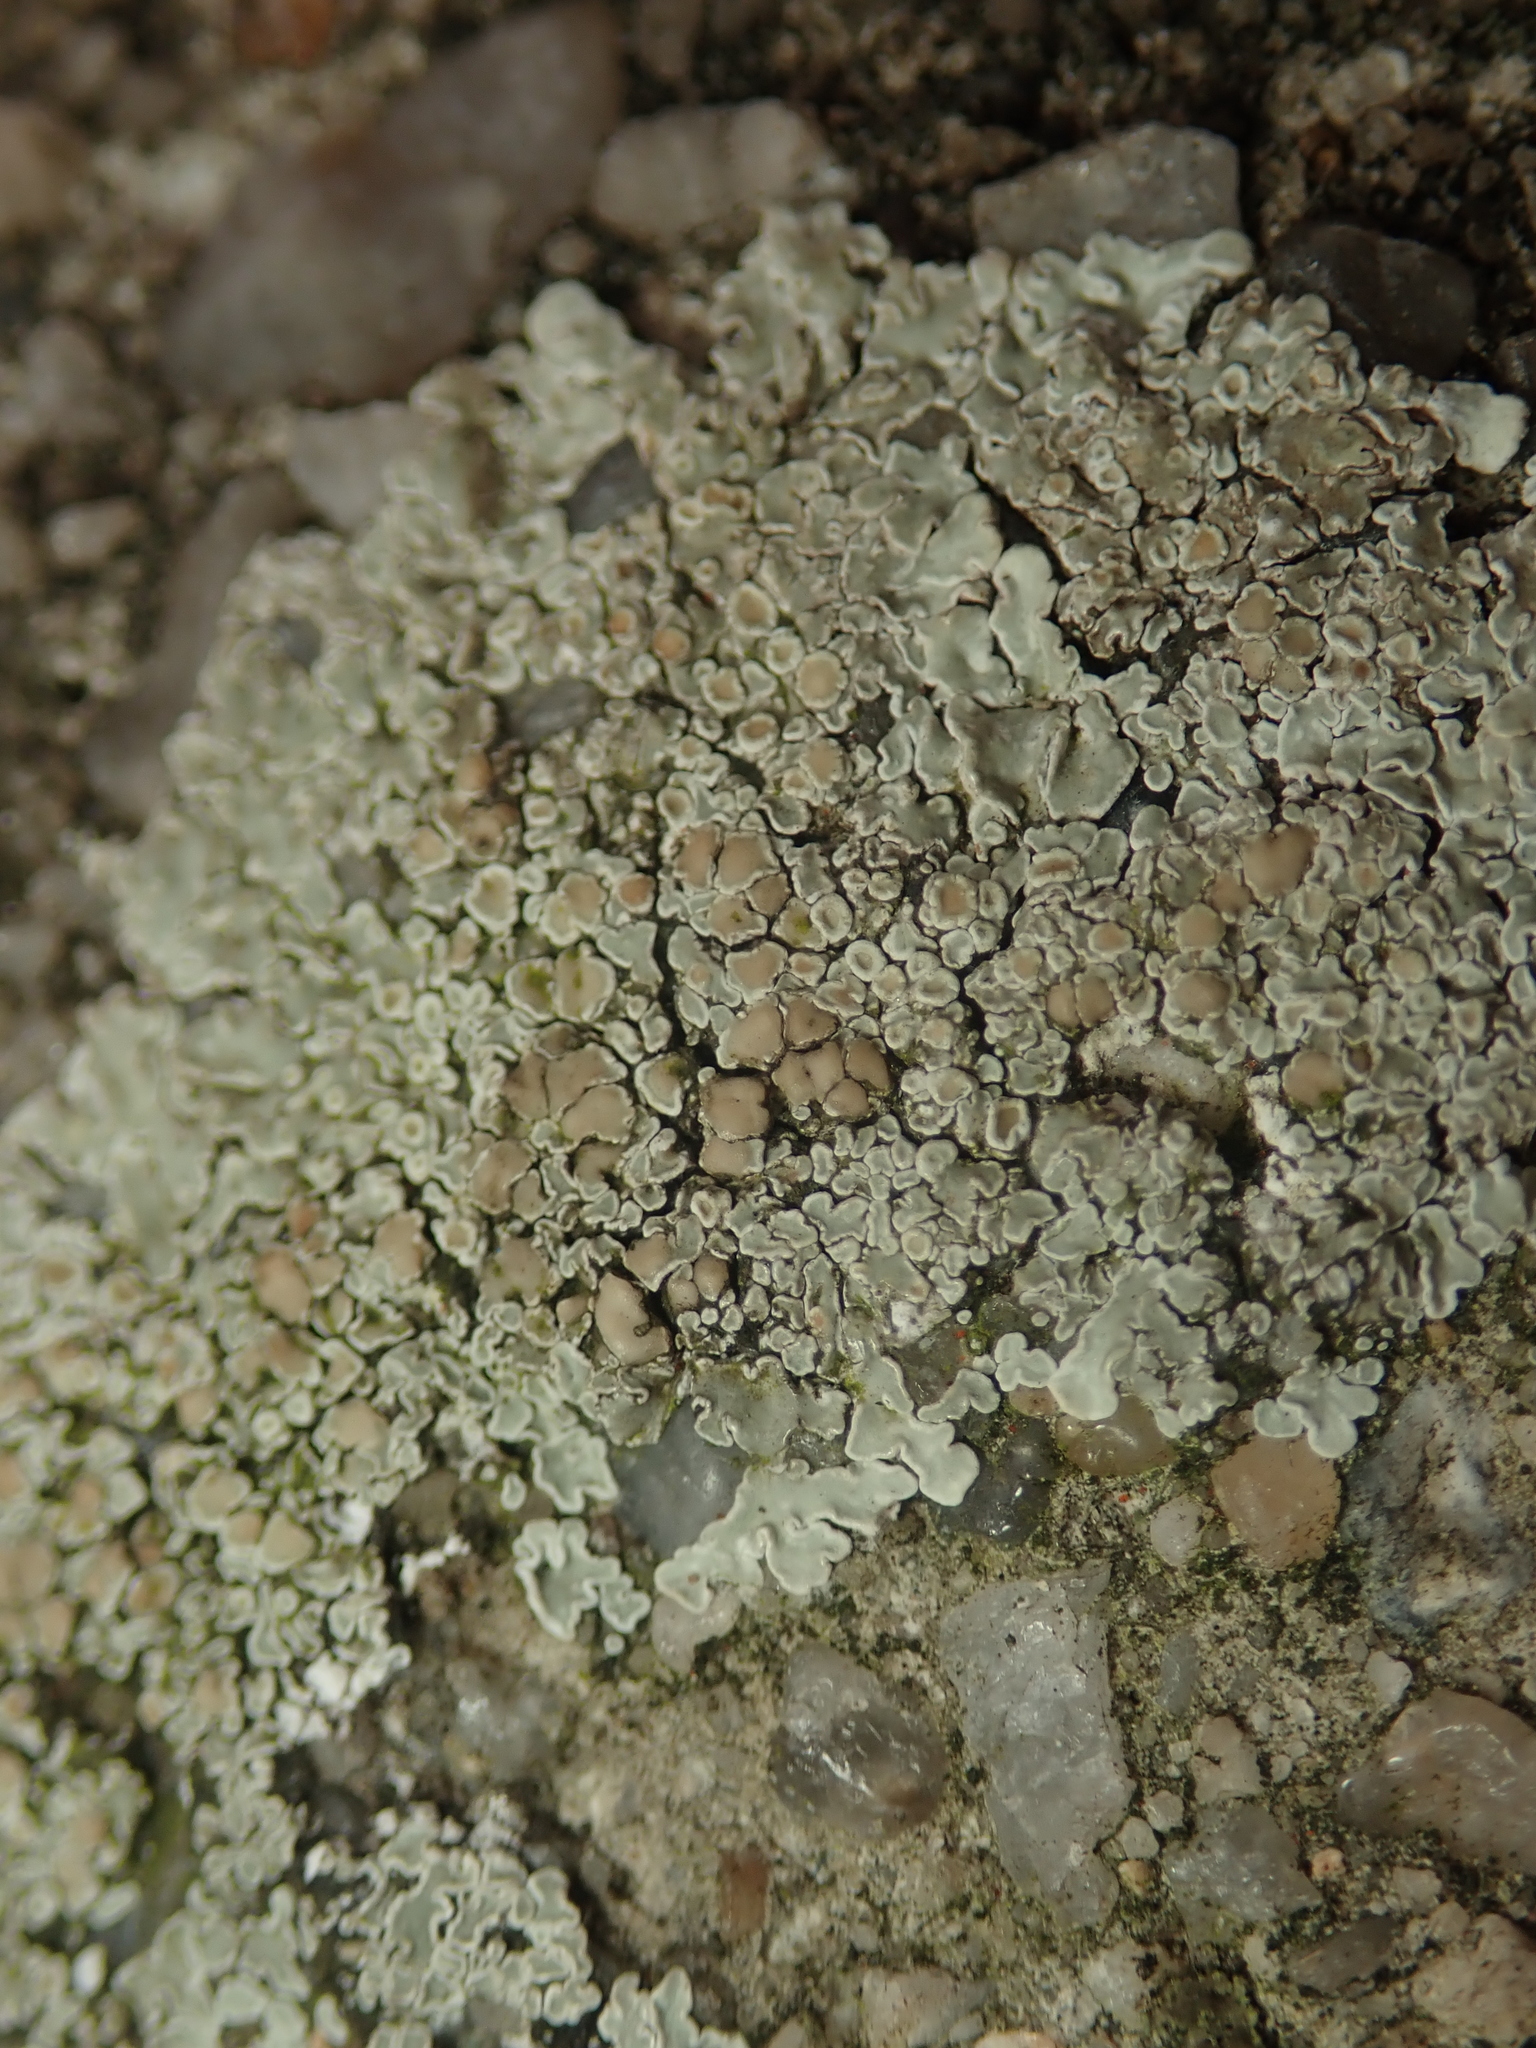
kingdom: Fungi
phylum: Ascomycota
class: Lecanoromycetes
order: Lecanorales
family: Lecanoraceae
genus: Protoparmeliopsis
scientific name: Protoparmeliopsis muralis
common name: Stonewall rim lichen
